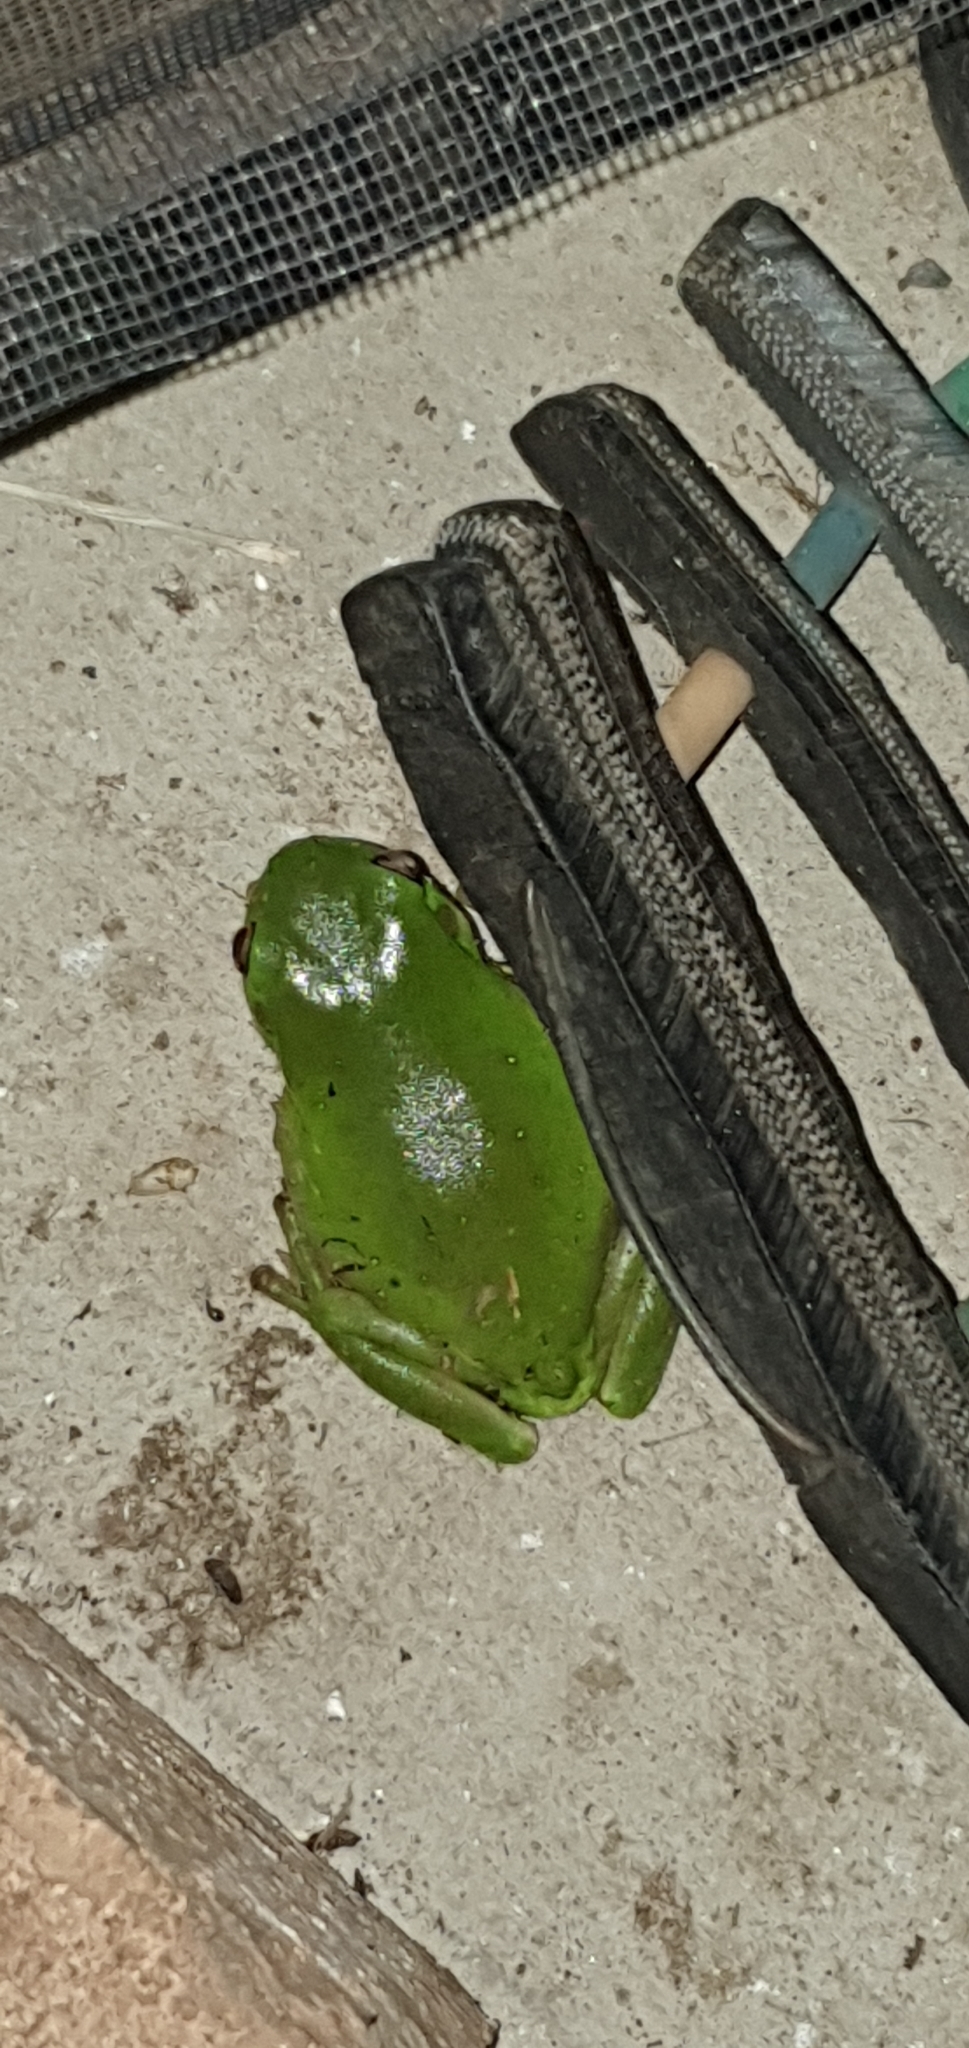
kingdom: Animalia
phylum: Chordata
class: Amphibia
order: Anura
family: Pelodryadidae
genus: Ranoidea
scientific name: Ranoidea caerulea
